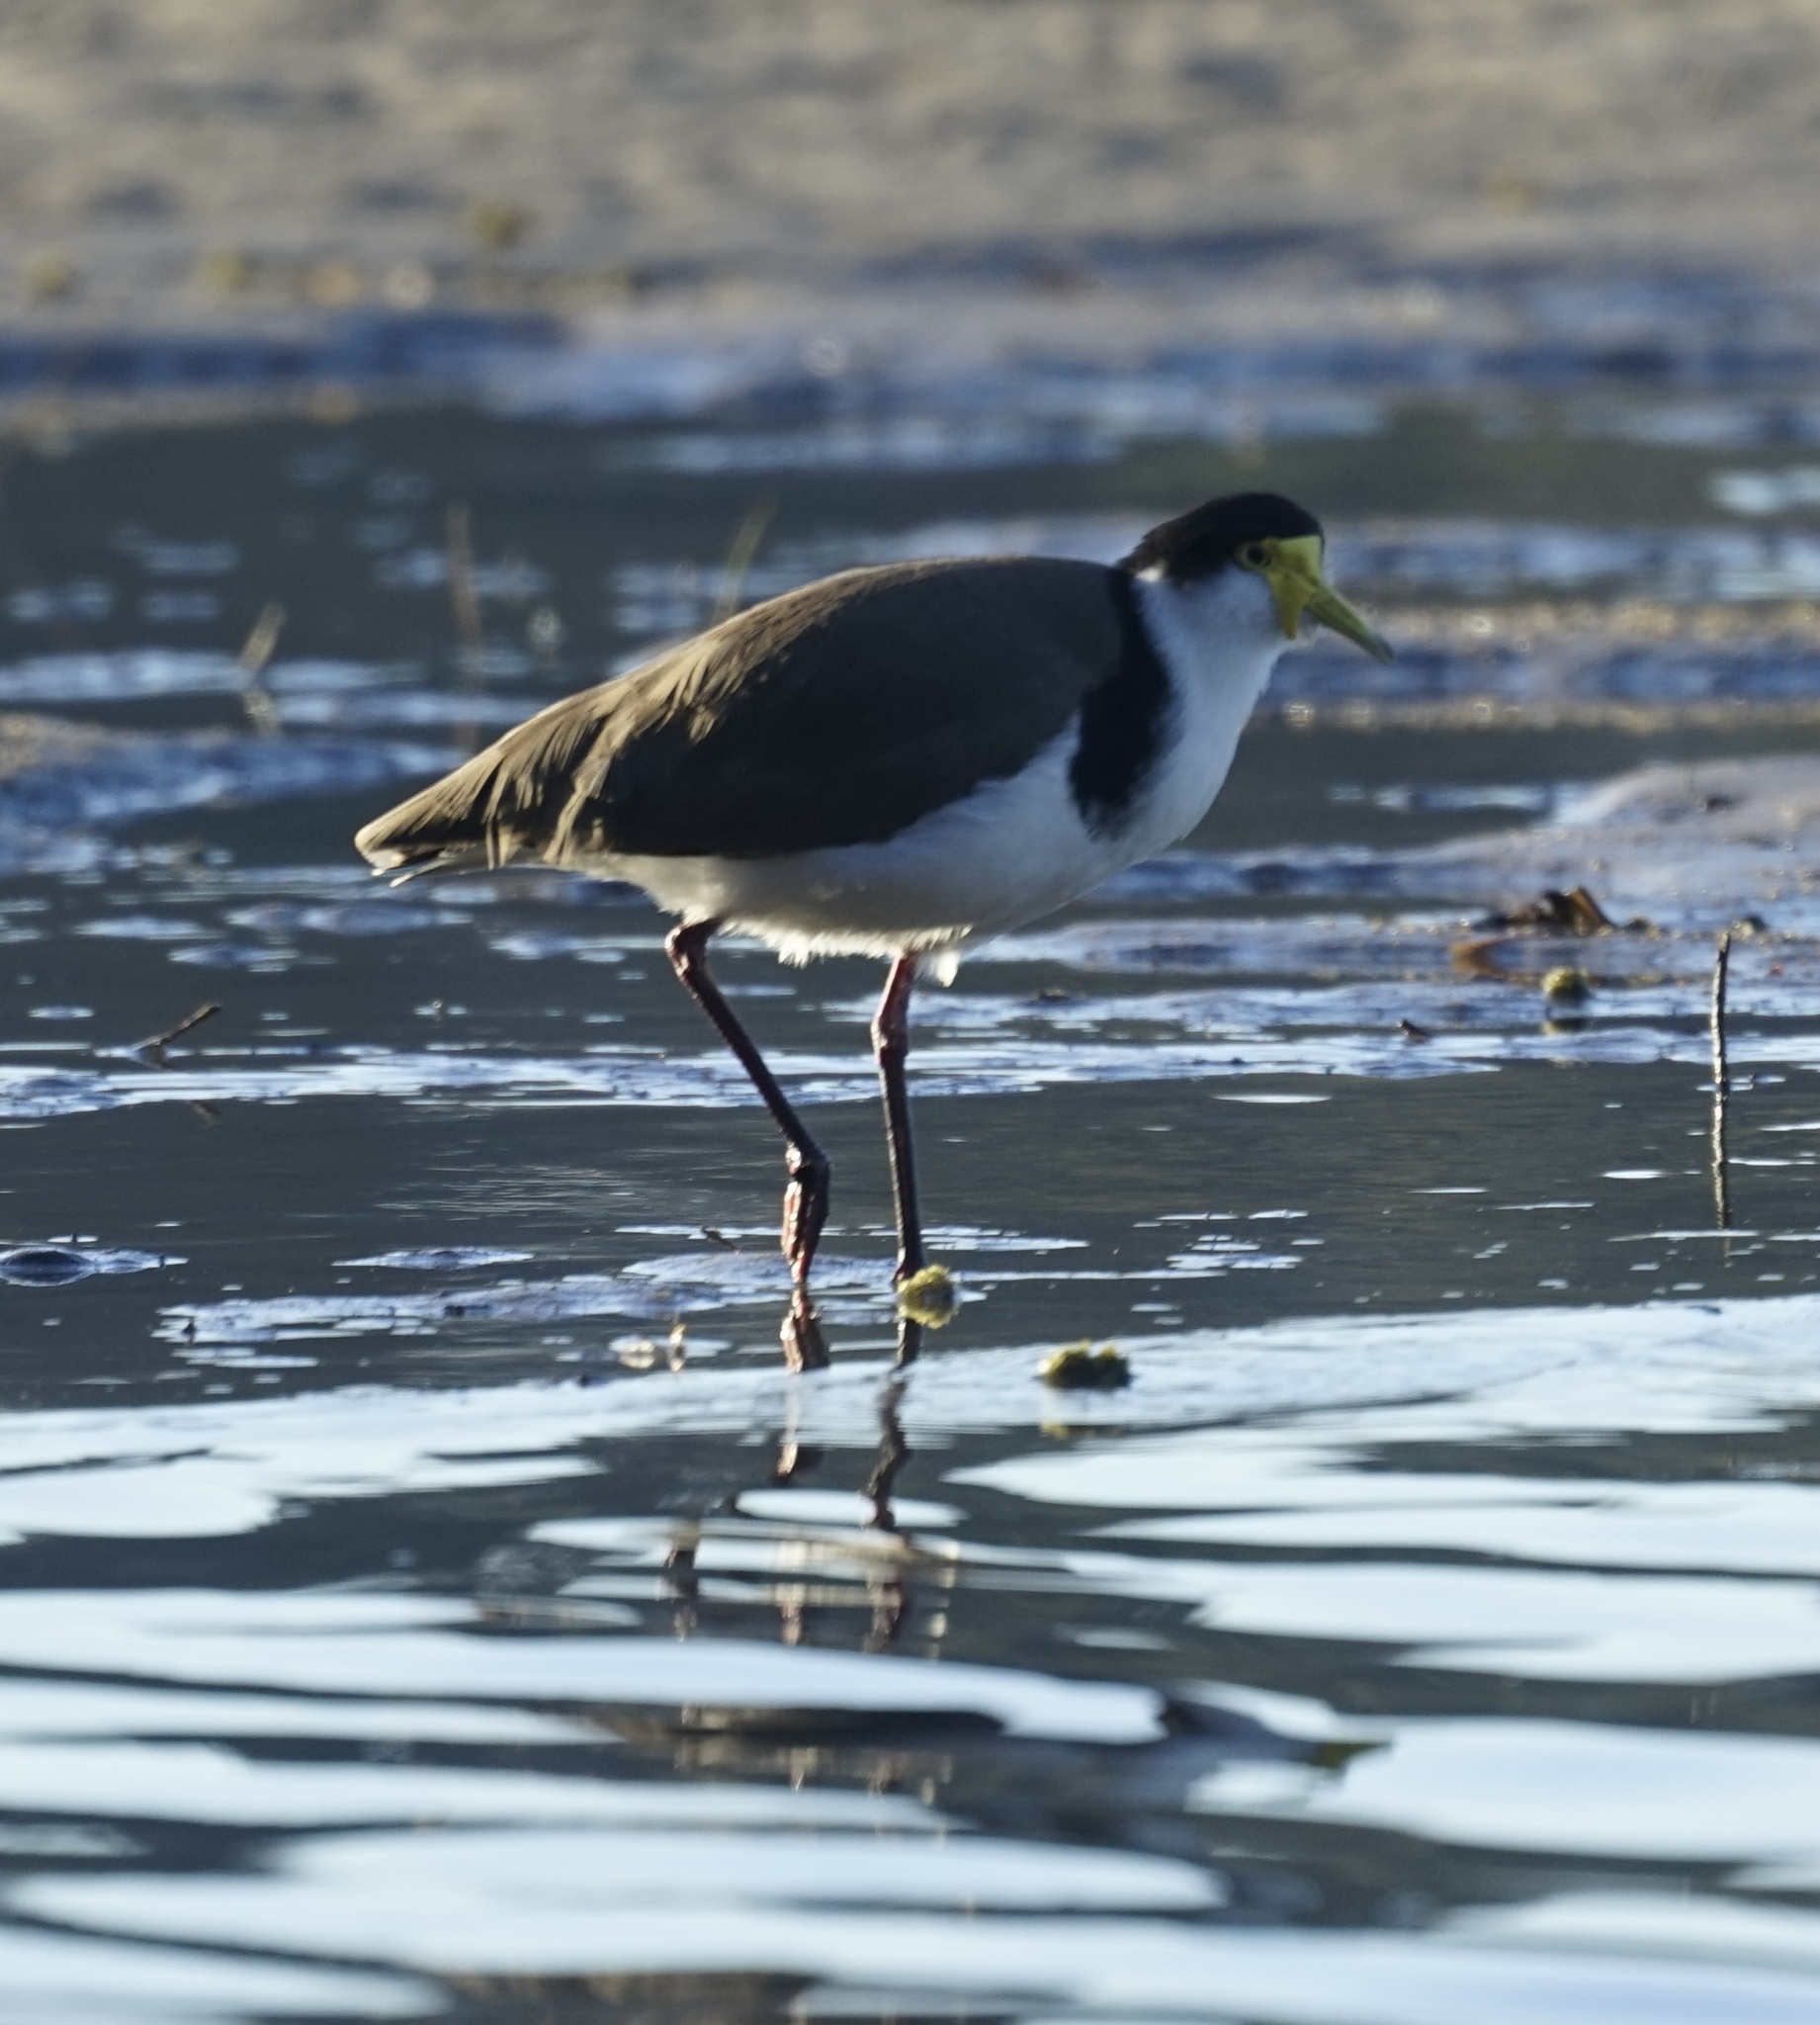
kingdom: Animalia
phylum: Chordata
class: Aves
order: Charadriiformes
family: Charadriidae
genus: Vanellus
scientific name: Vanellus miles
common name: Masked lapwing
